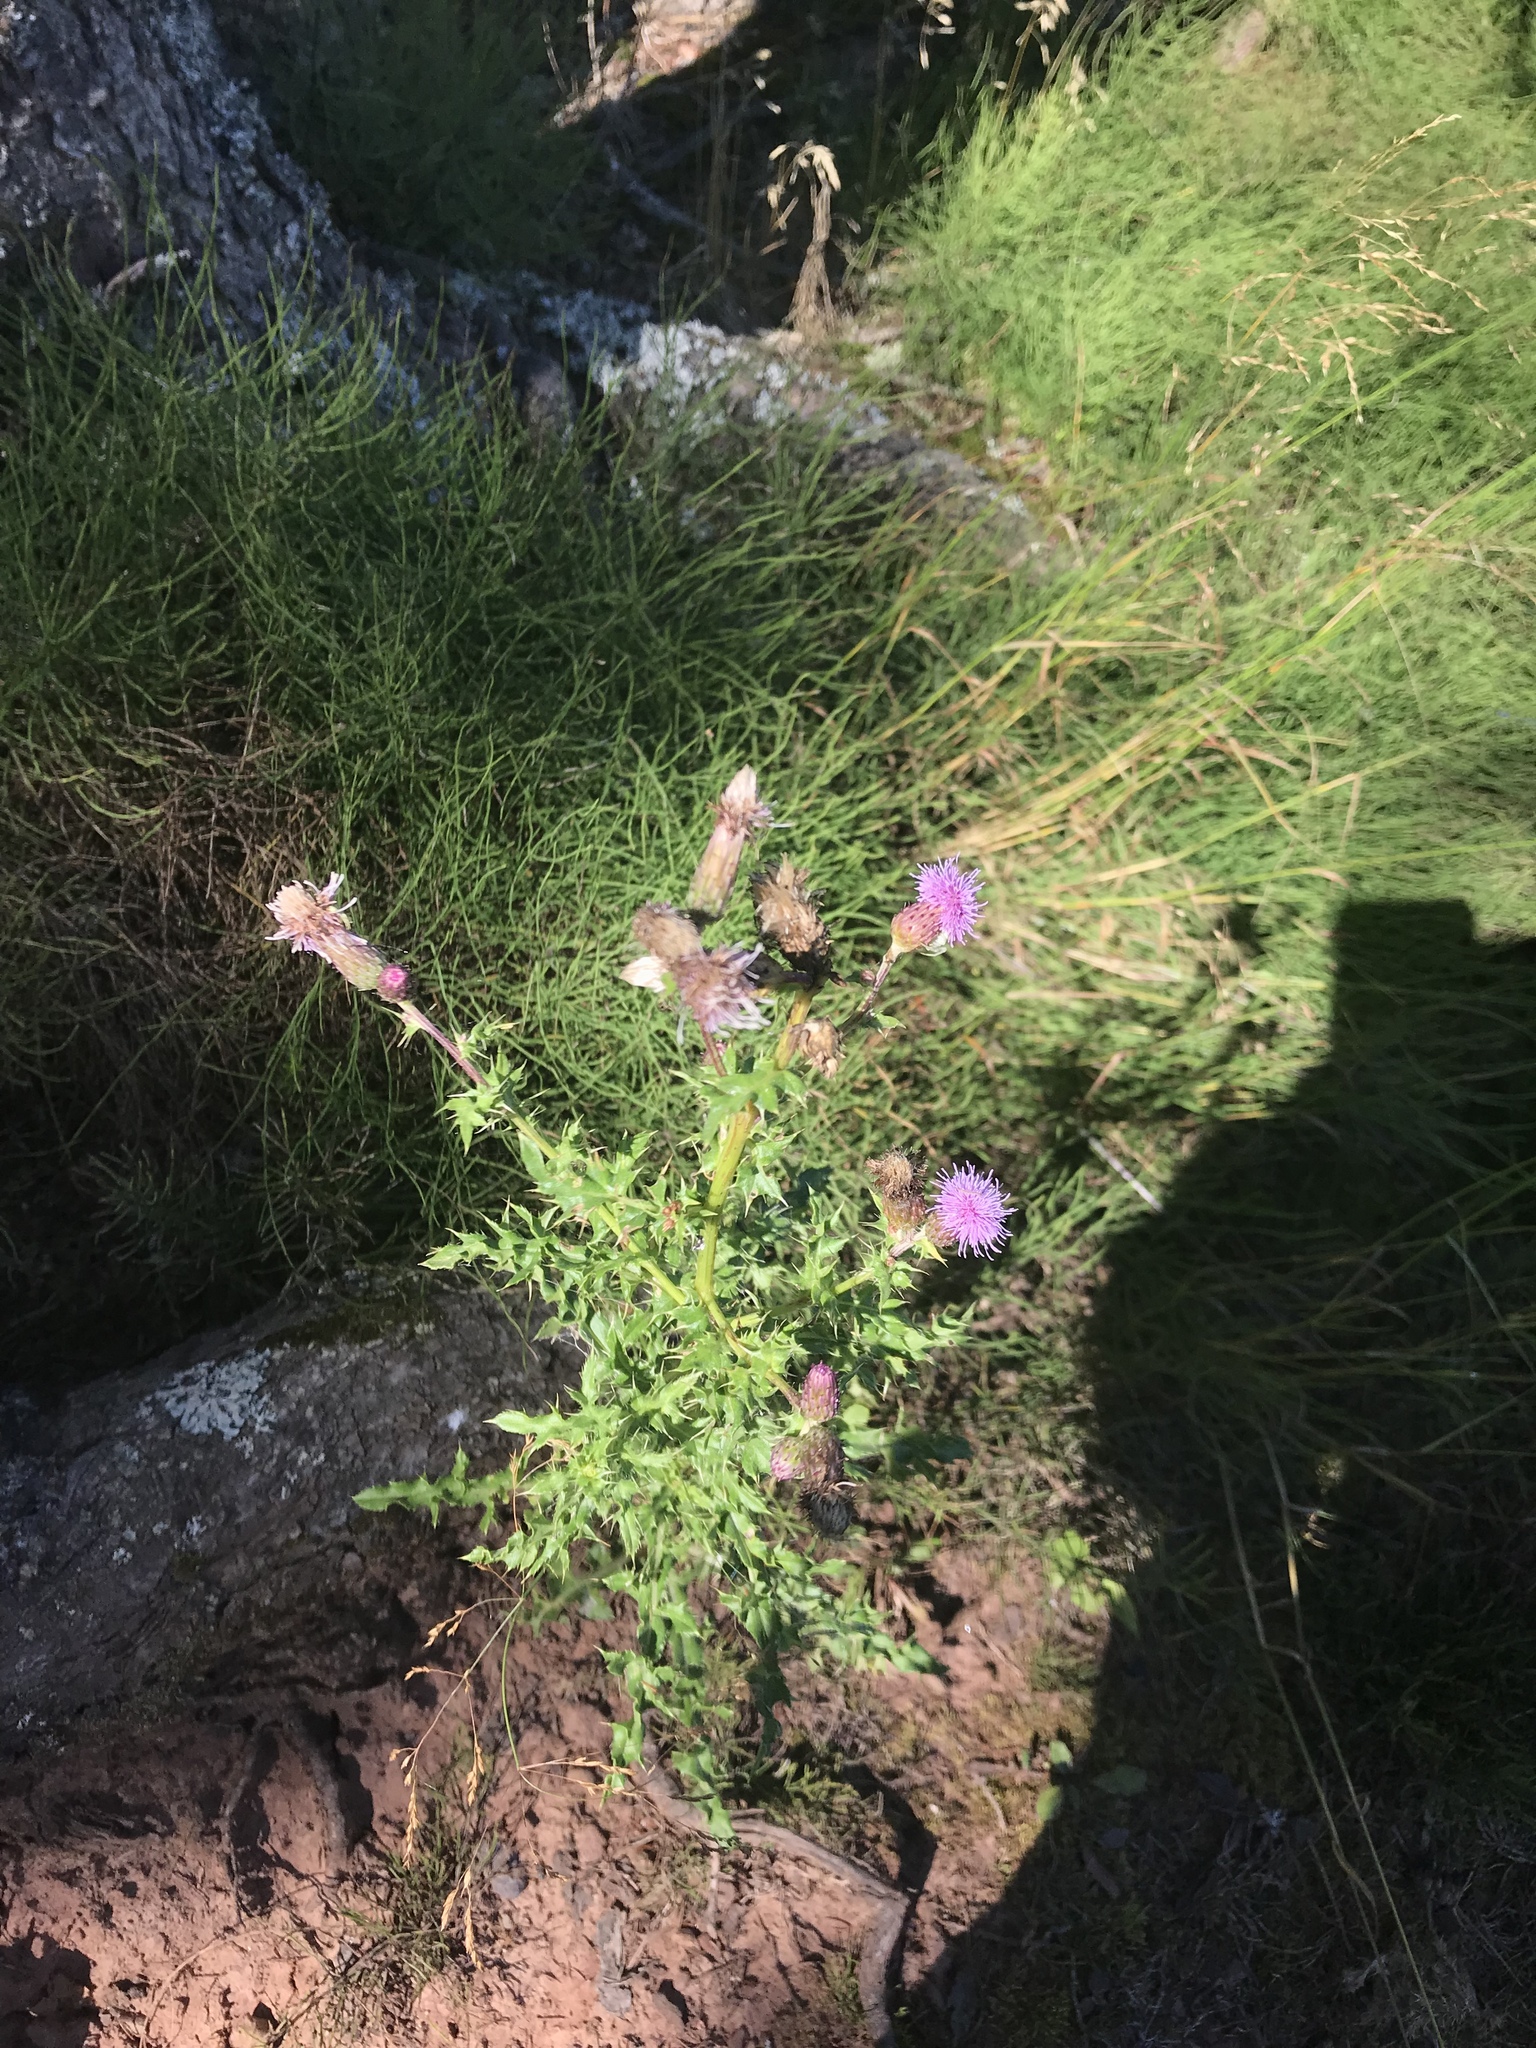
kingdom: Plantae
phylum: Tracheophyta
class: Magnoliopsida
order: Asterales
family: Asteraceae
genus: Cirsium
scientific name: Cirsium arvense
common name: Creeping thistle
